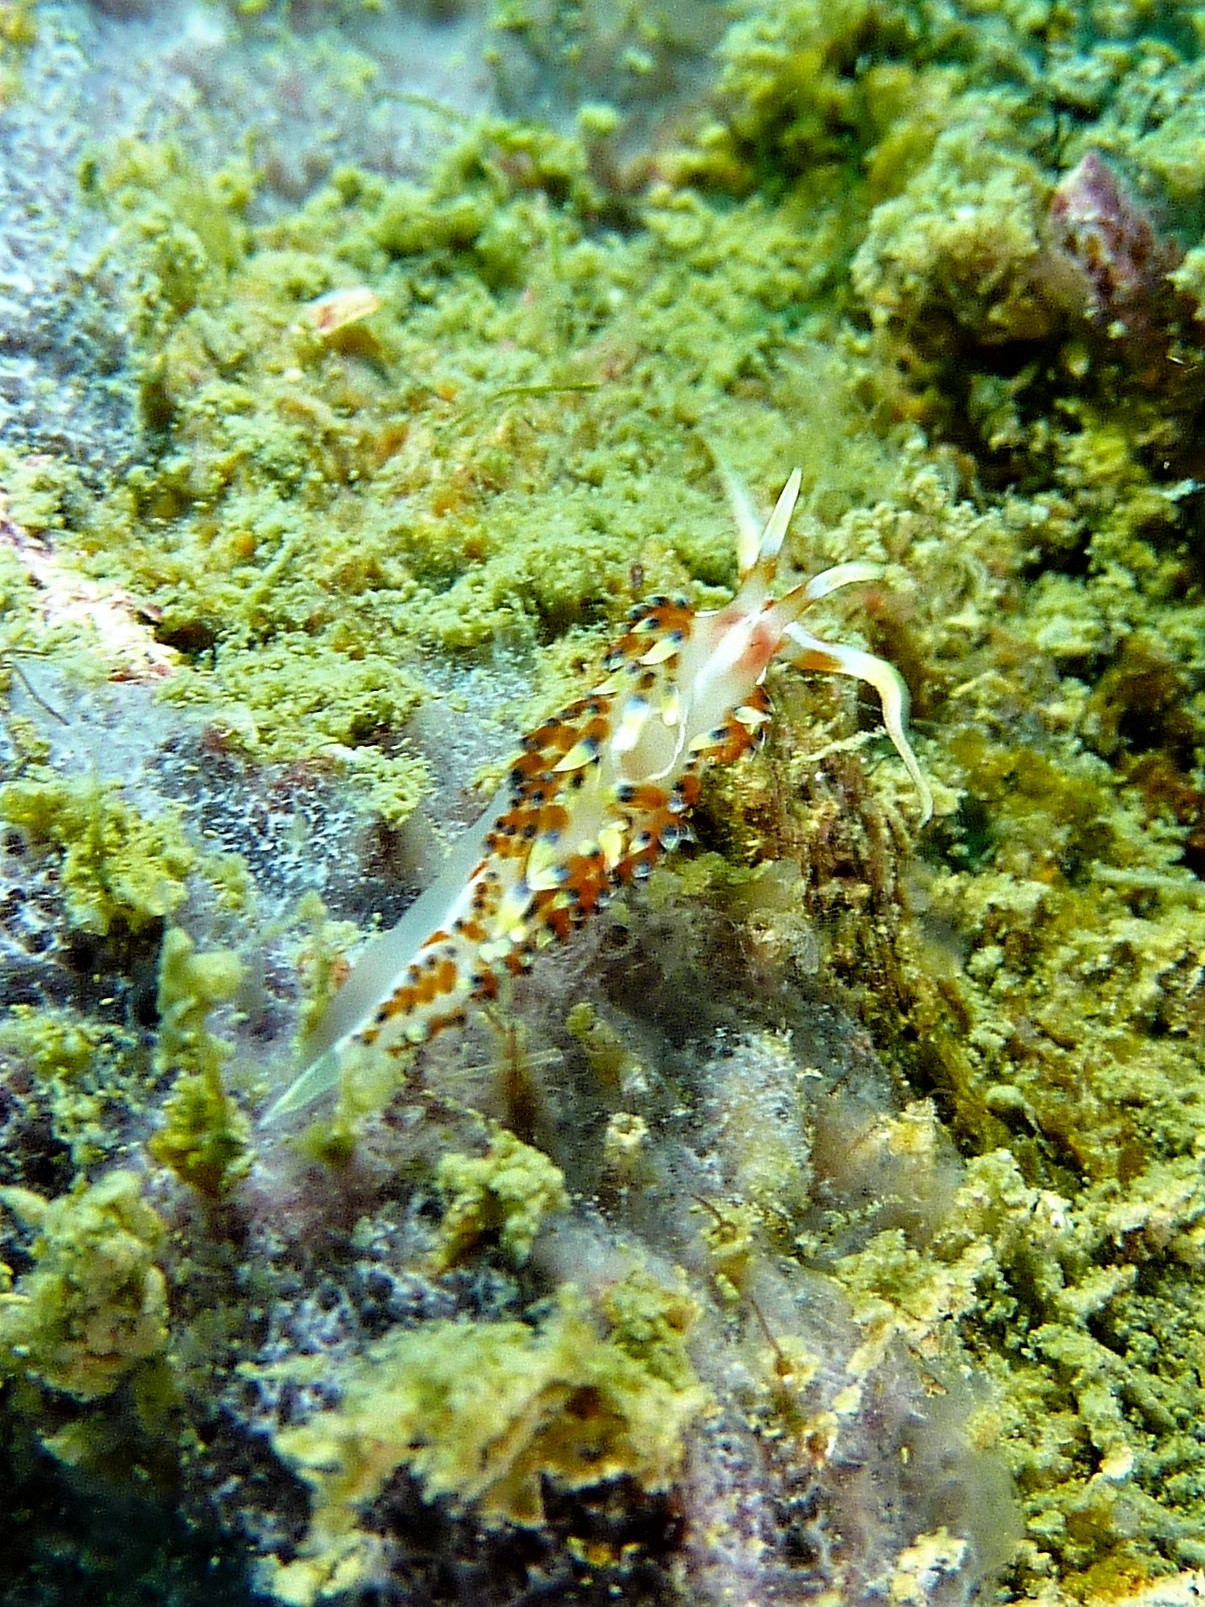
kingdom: Animalia
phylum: Mollusca
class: Gastropoda
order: Nudibranchia
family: Facelinidae
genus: Caloria
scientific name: Caloria indica
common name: Sea slug
